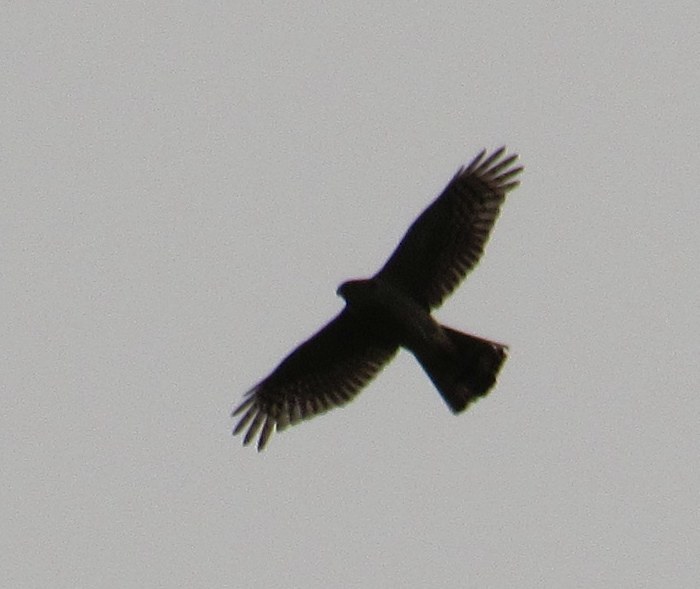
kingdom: Animalia
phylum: Chordata
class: Aves
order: Accipitriformes
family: Accipitridae
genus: Accipiter
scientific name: Accipiter nisus
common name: Eurasian sparrowhawk
